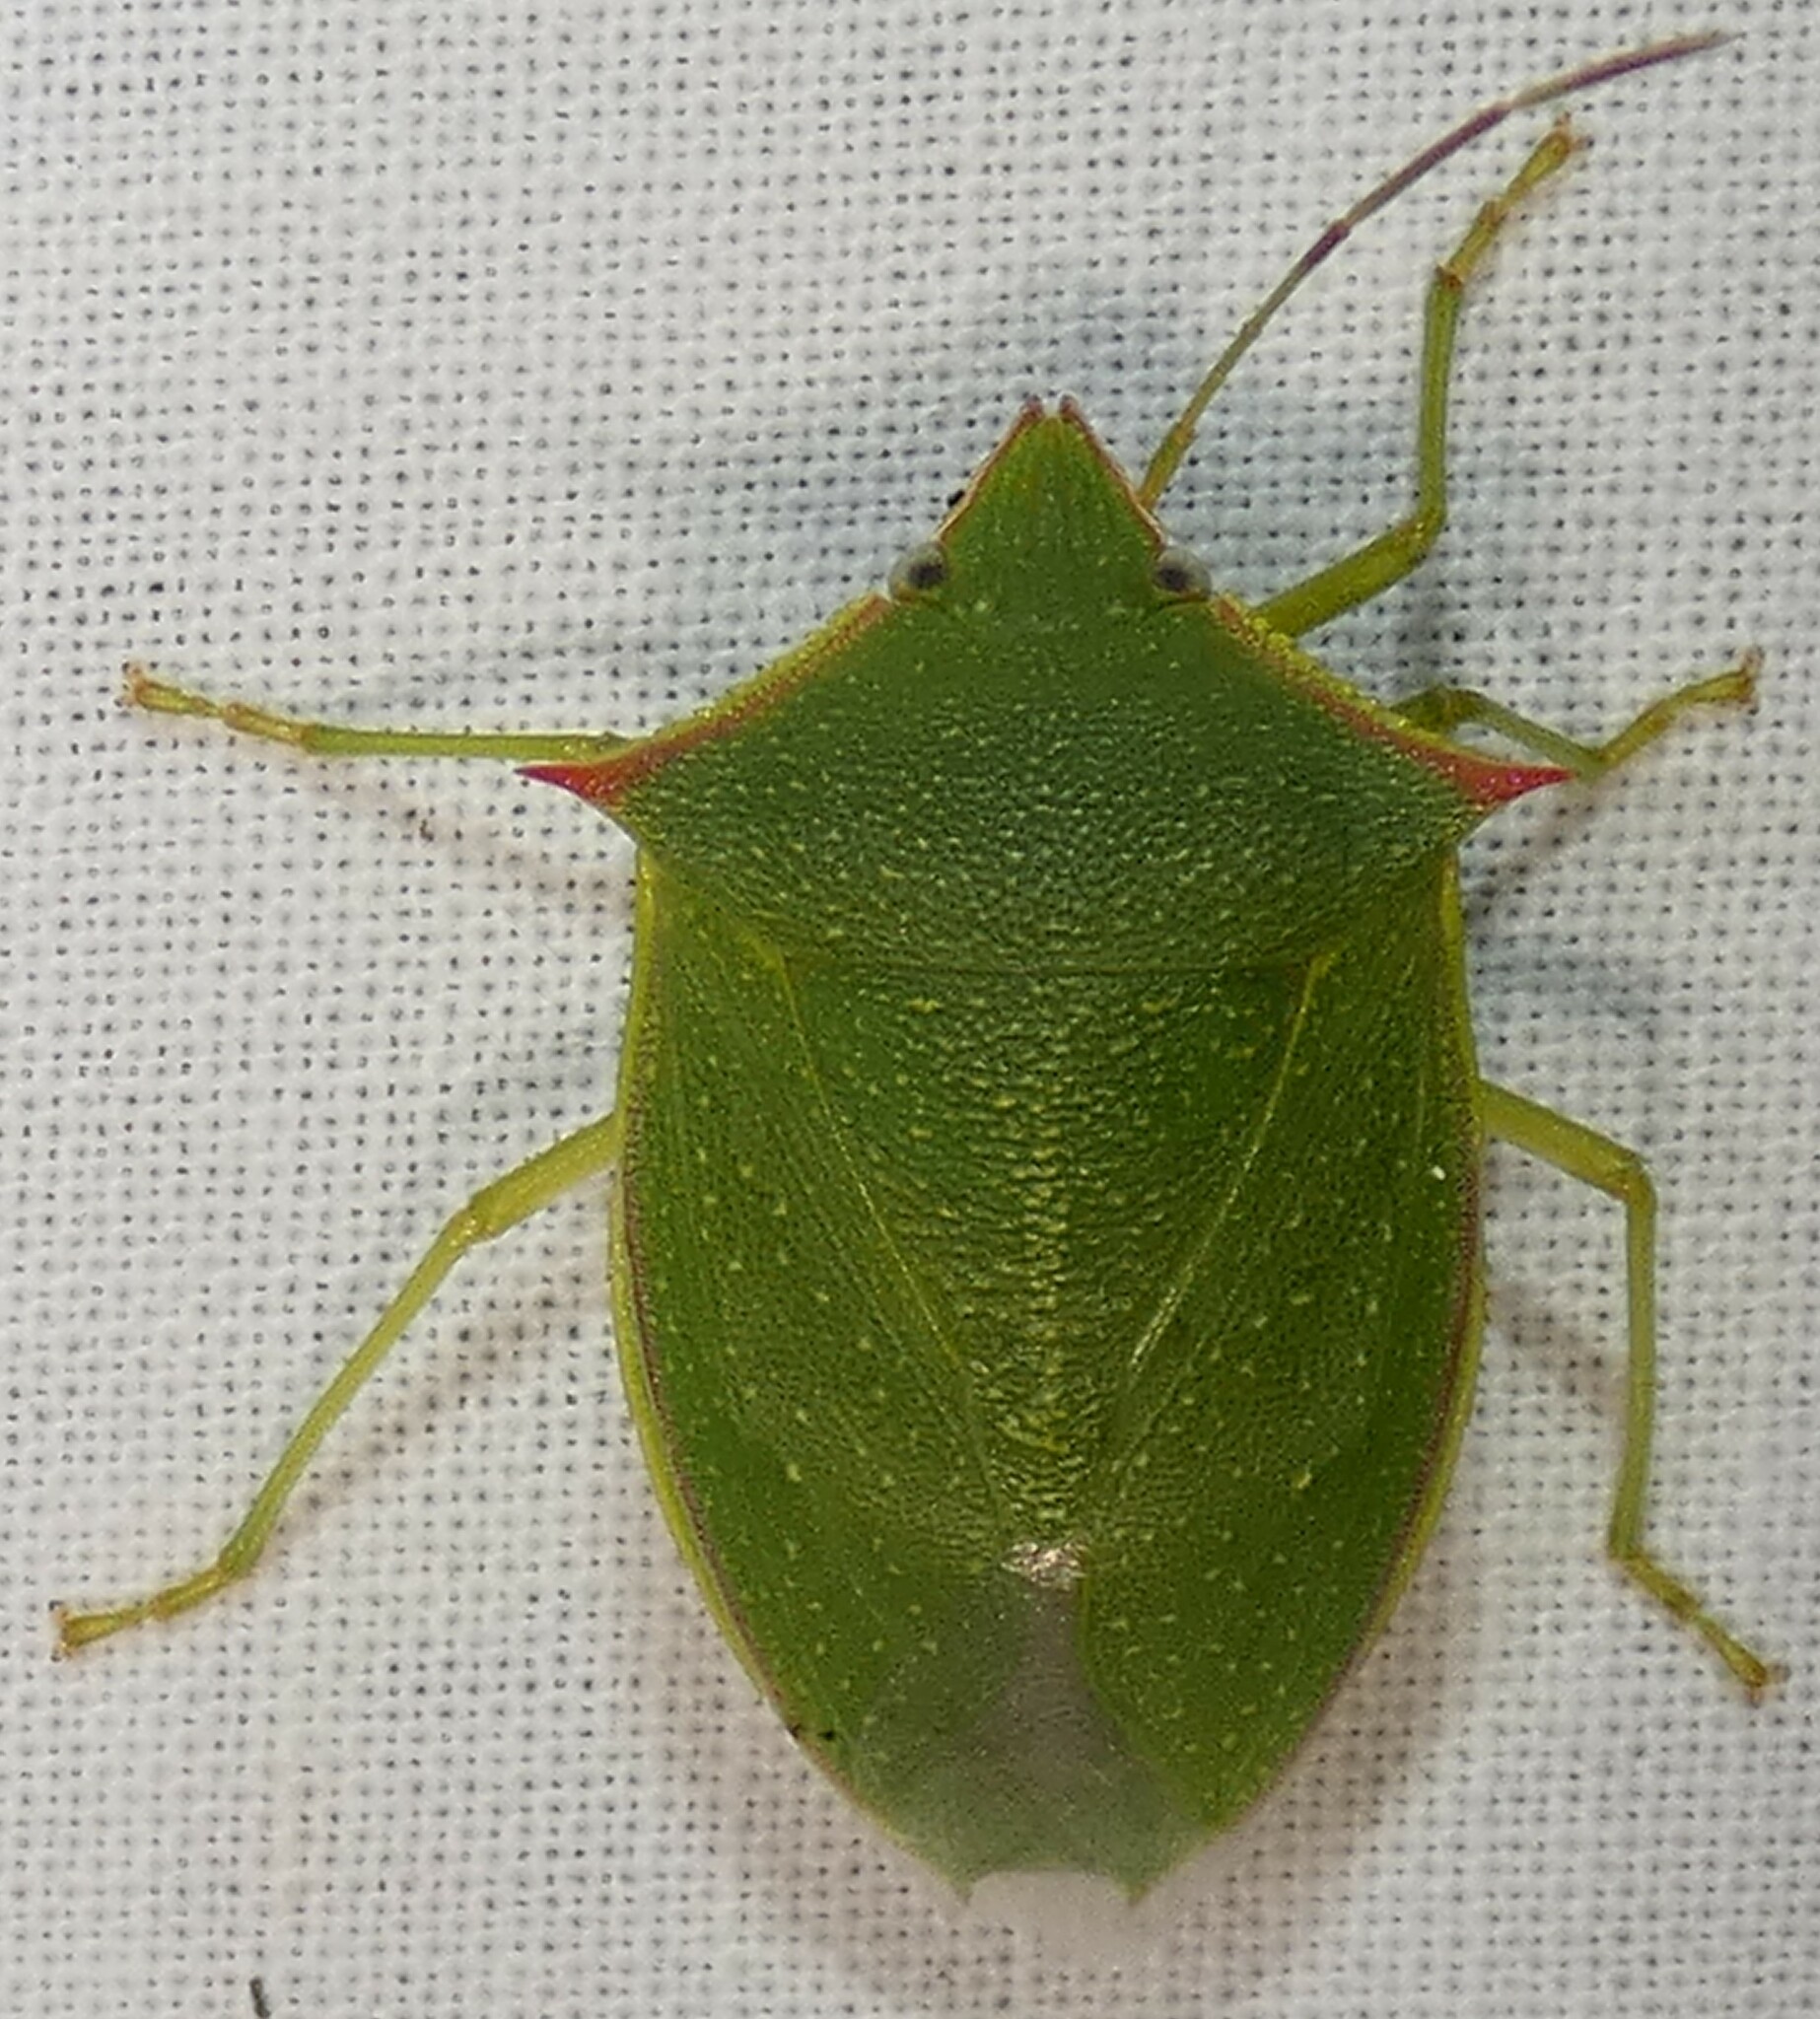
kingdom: Animalia
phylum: Arthropoda
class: Insecta
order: Hemiptera
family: Pentatomidae
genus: Loxa
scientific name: Loxa flavicollis
